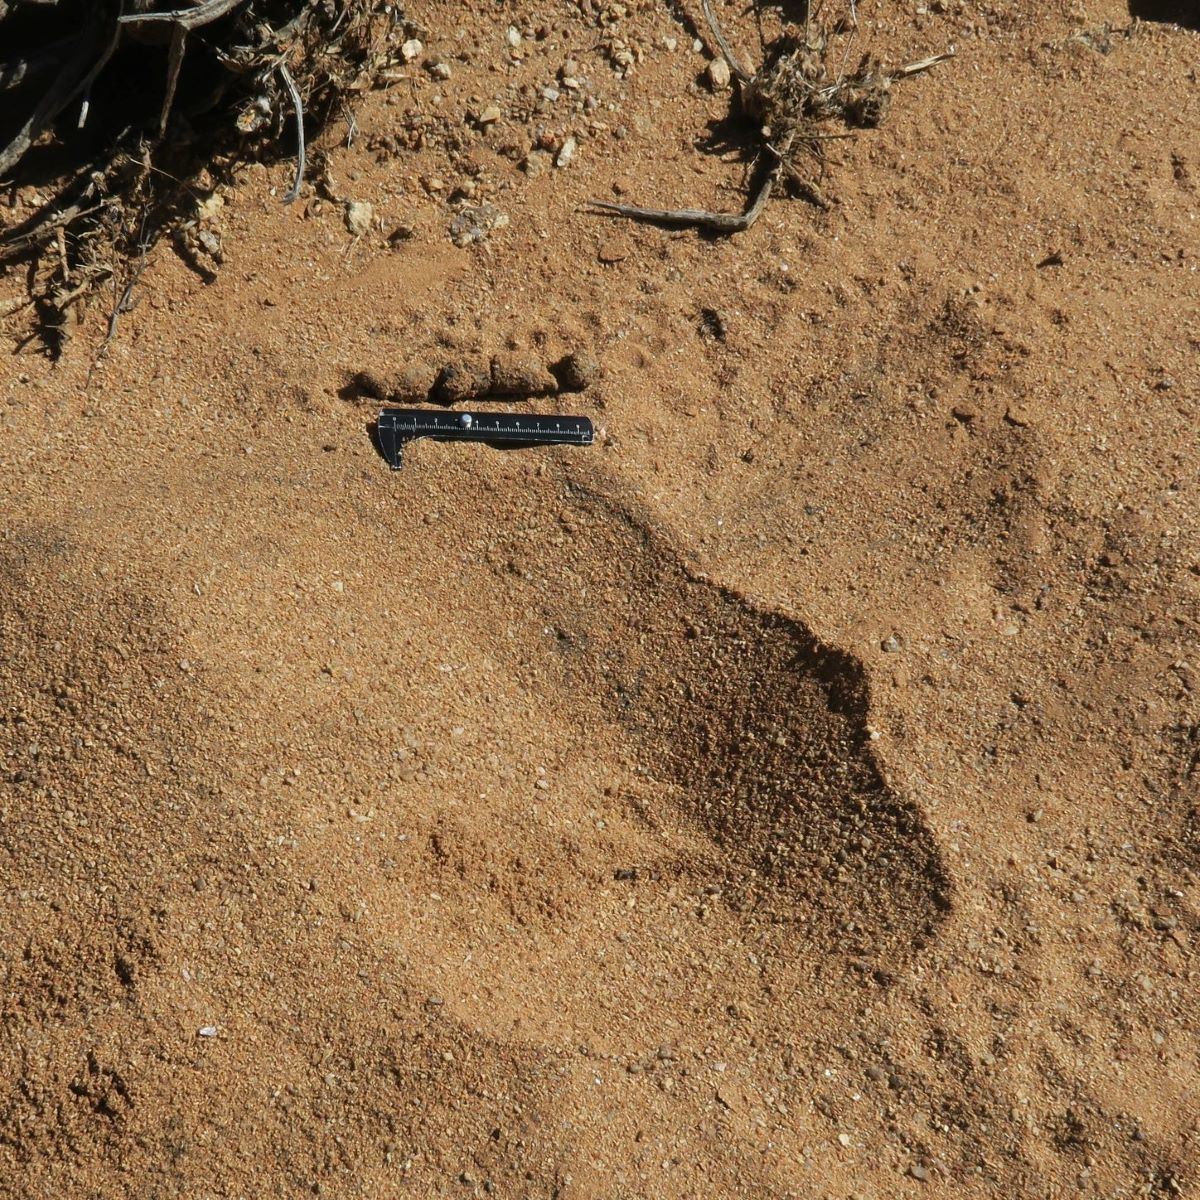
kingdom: Animalia
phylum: Chordata
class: Mammalia
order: Carnivora
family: Felidae
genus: Caracal
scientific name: Caracal caracal
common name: Caracal
